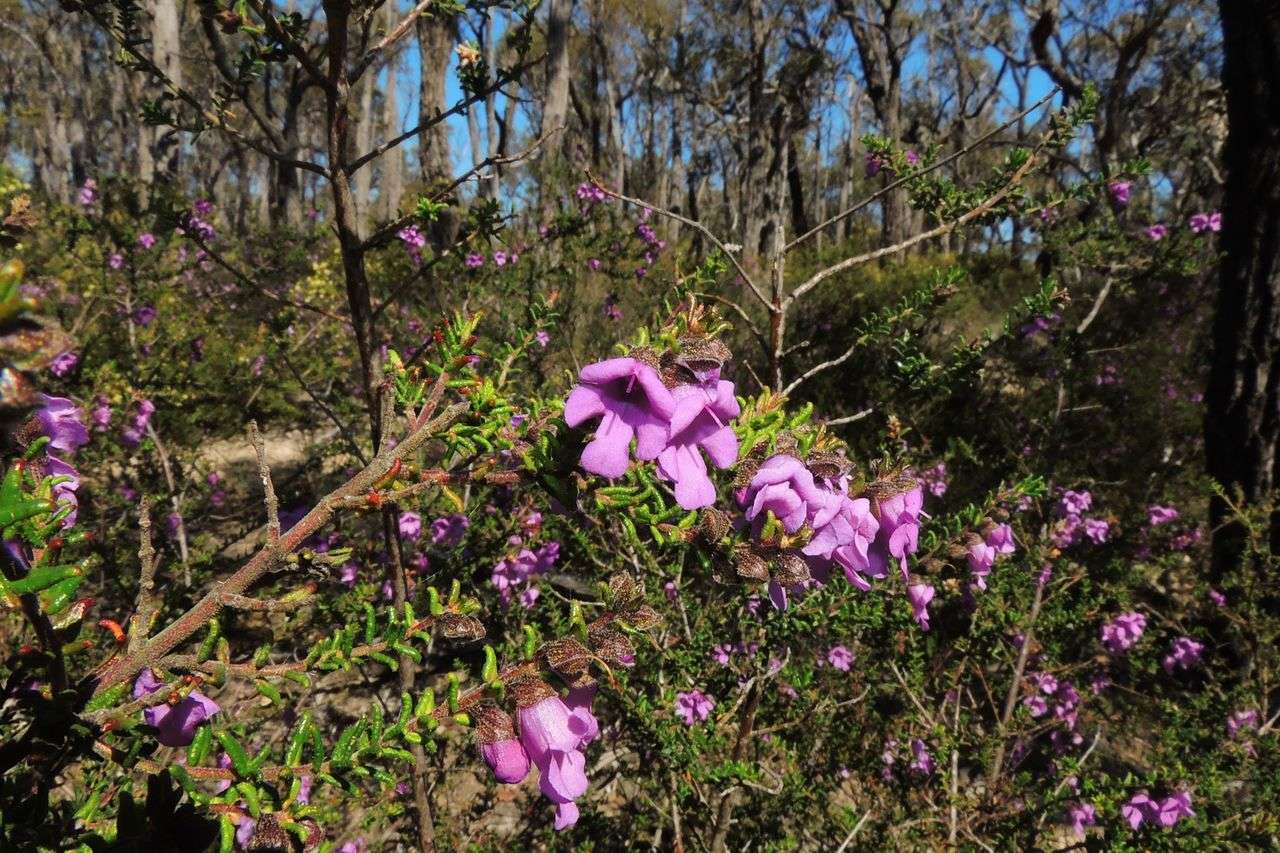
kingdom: Plantae
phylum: Tracheophyta
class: Magnoliopsida
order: Lamiales
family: Lamiaceae
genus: Prostanthera
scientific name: Prostanthera decussata
